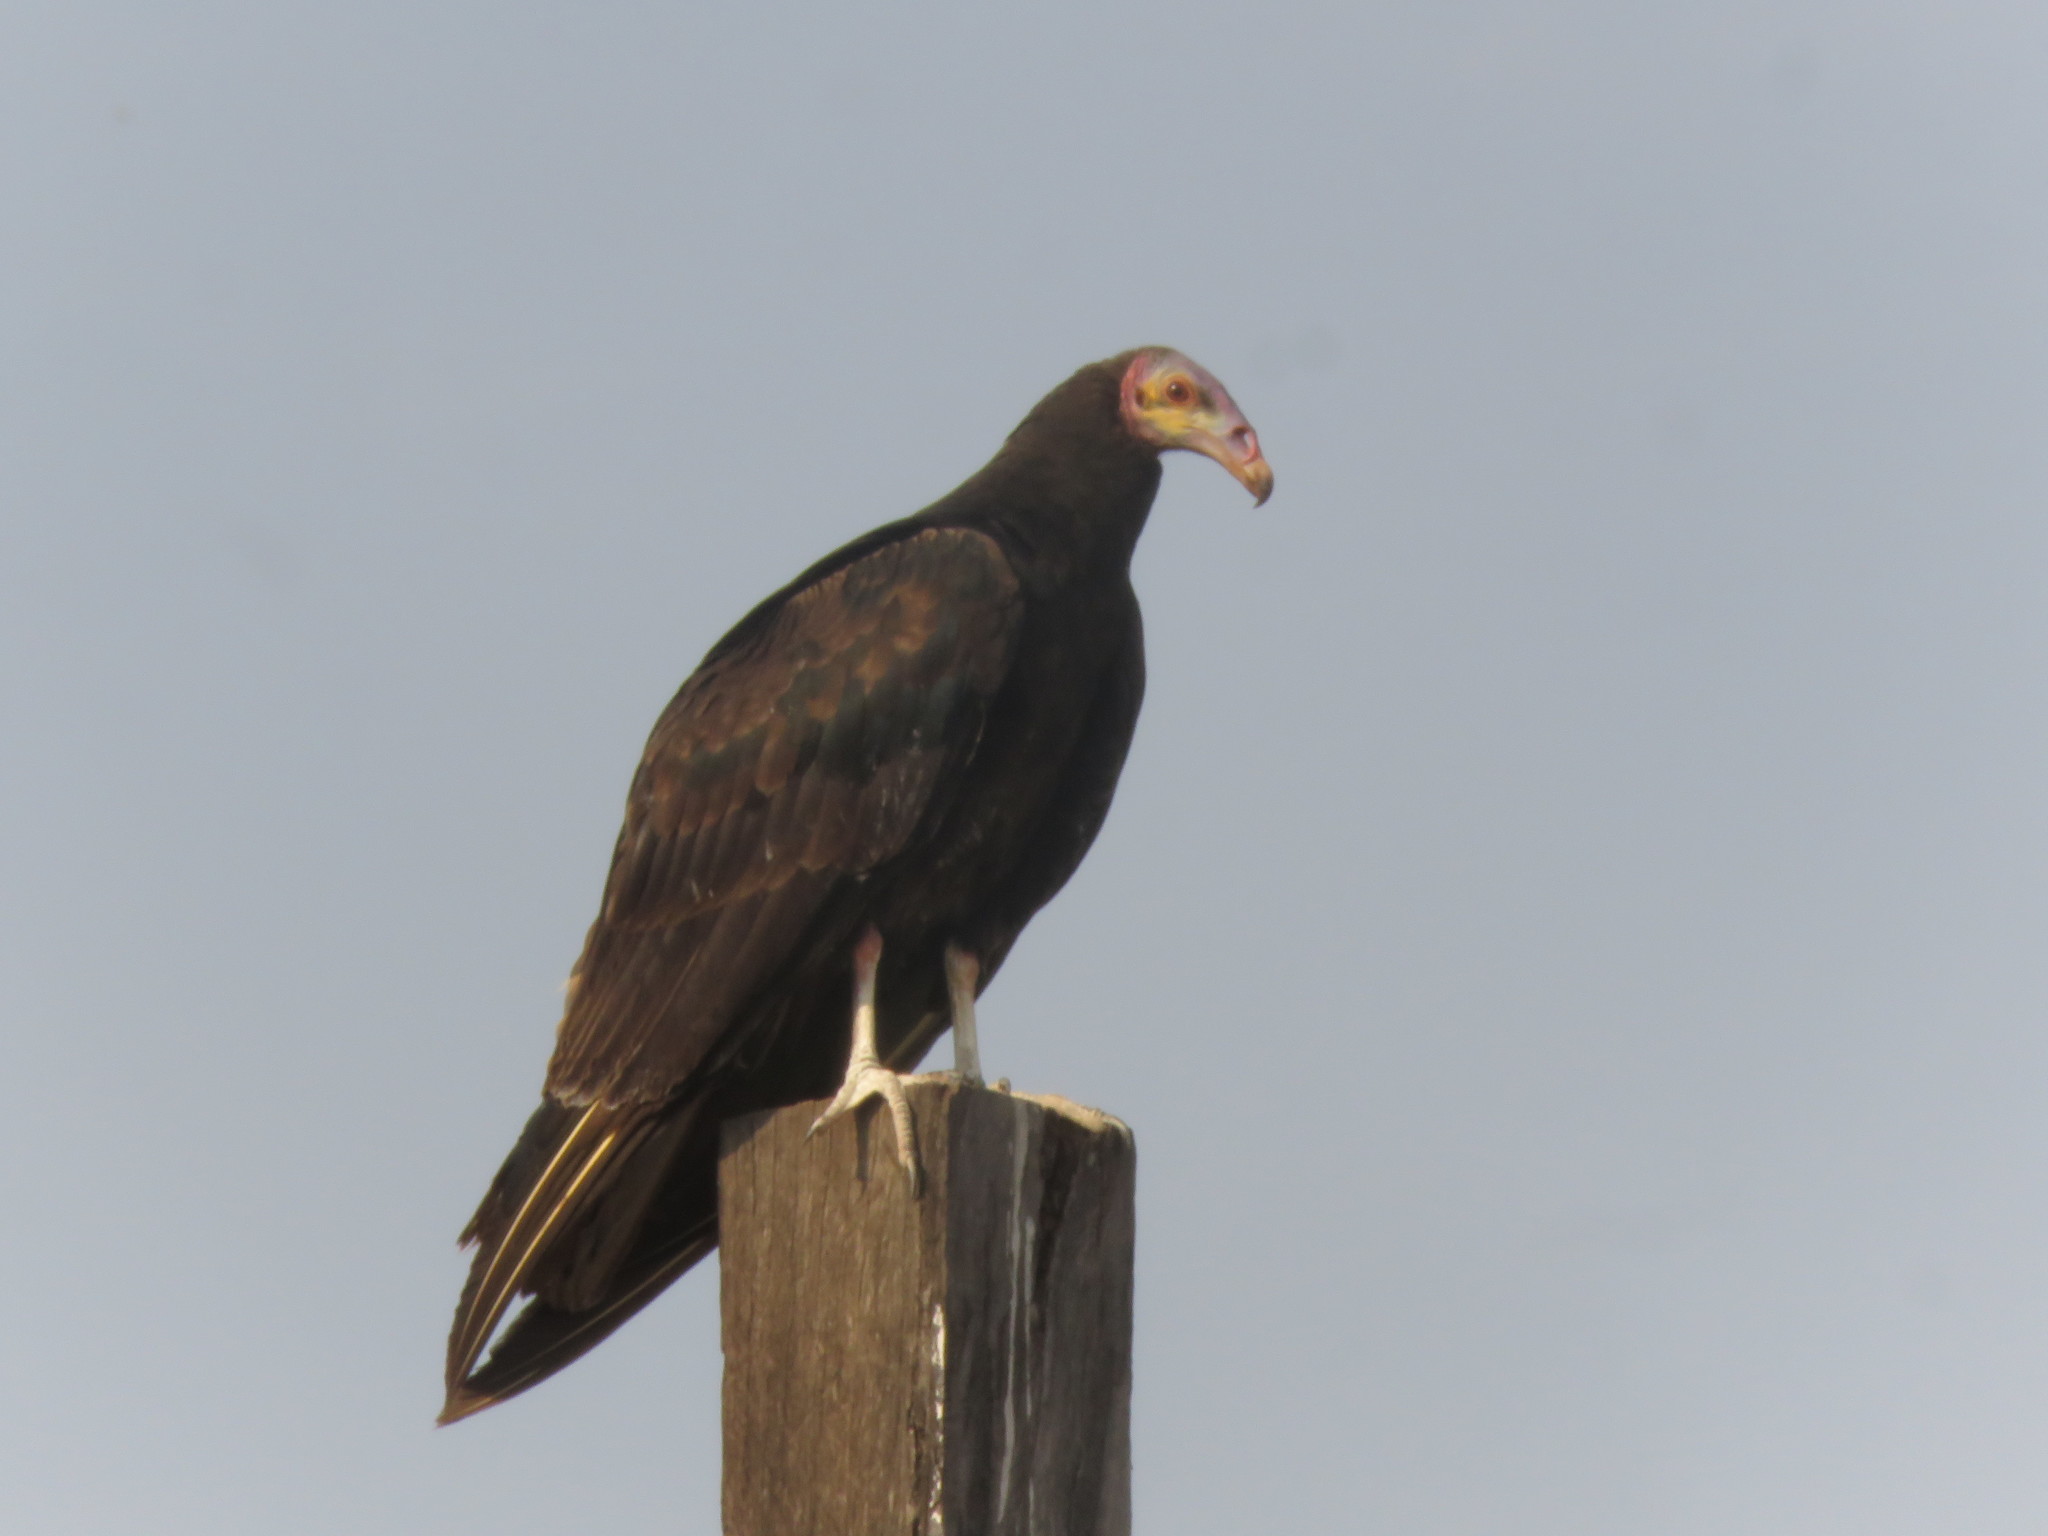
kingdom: Animalia
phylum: Chordata
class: Aves
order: Accipitriformes
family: Cathartidae
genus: Cathartes
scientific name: Cathartes burrovianus
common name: Lesser yellow-headed vulture
